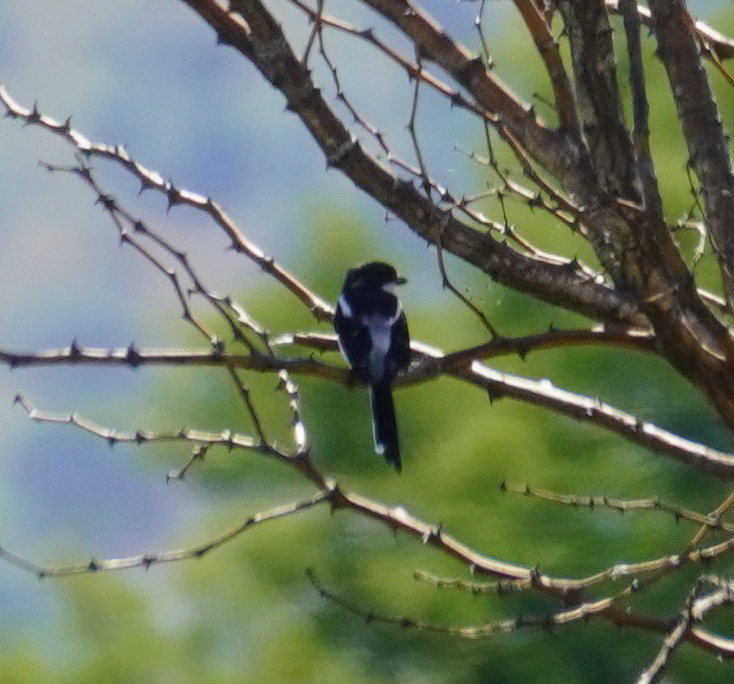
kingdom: Animalia
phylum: Chordata
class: Aves
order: Passeriformes
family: Laniidae
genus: Lanius
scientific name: Lanius collaris
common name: Southern fiscal
